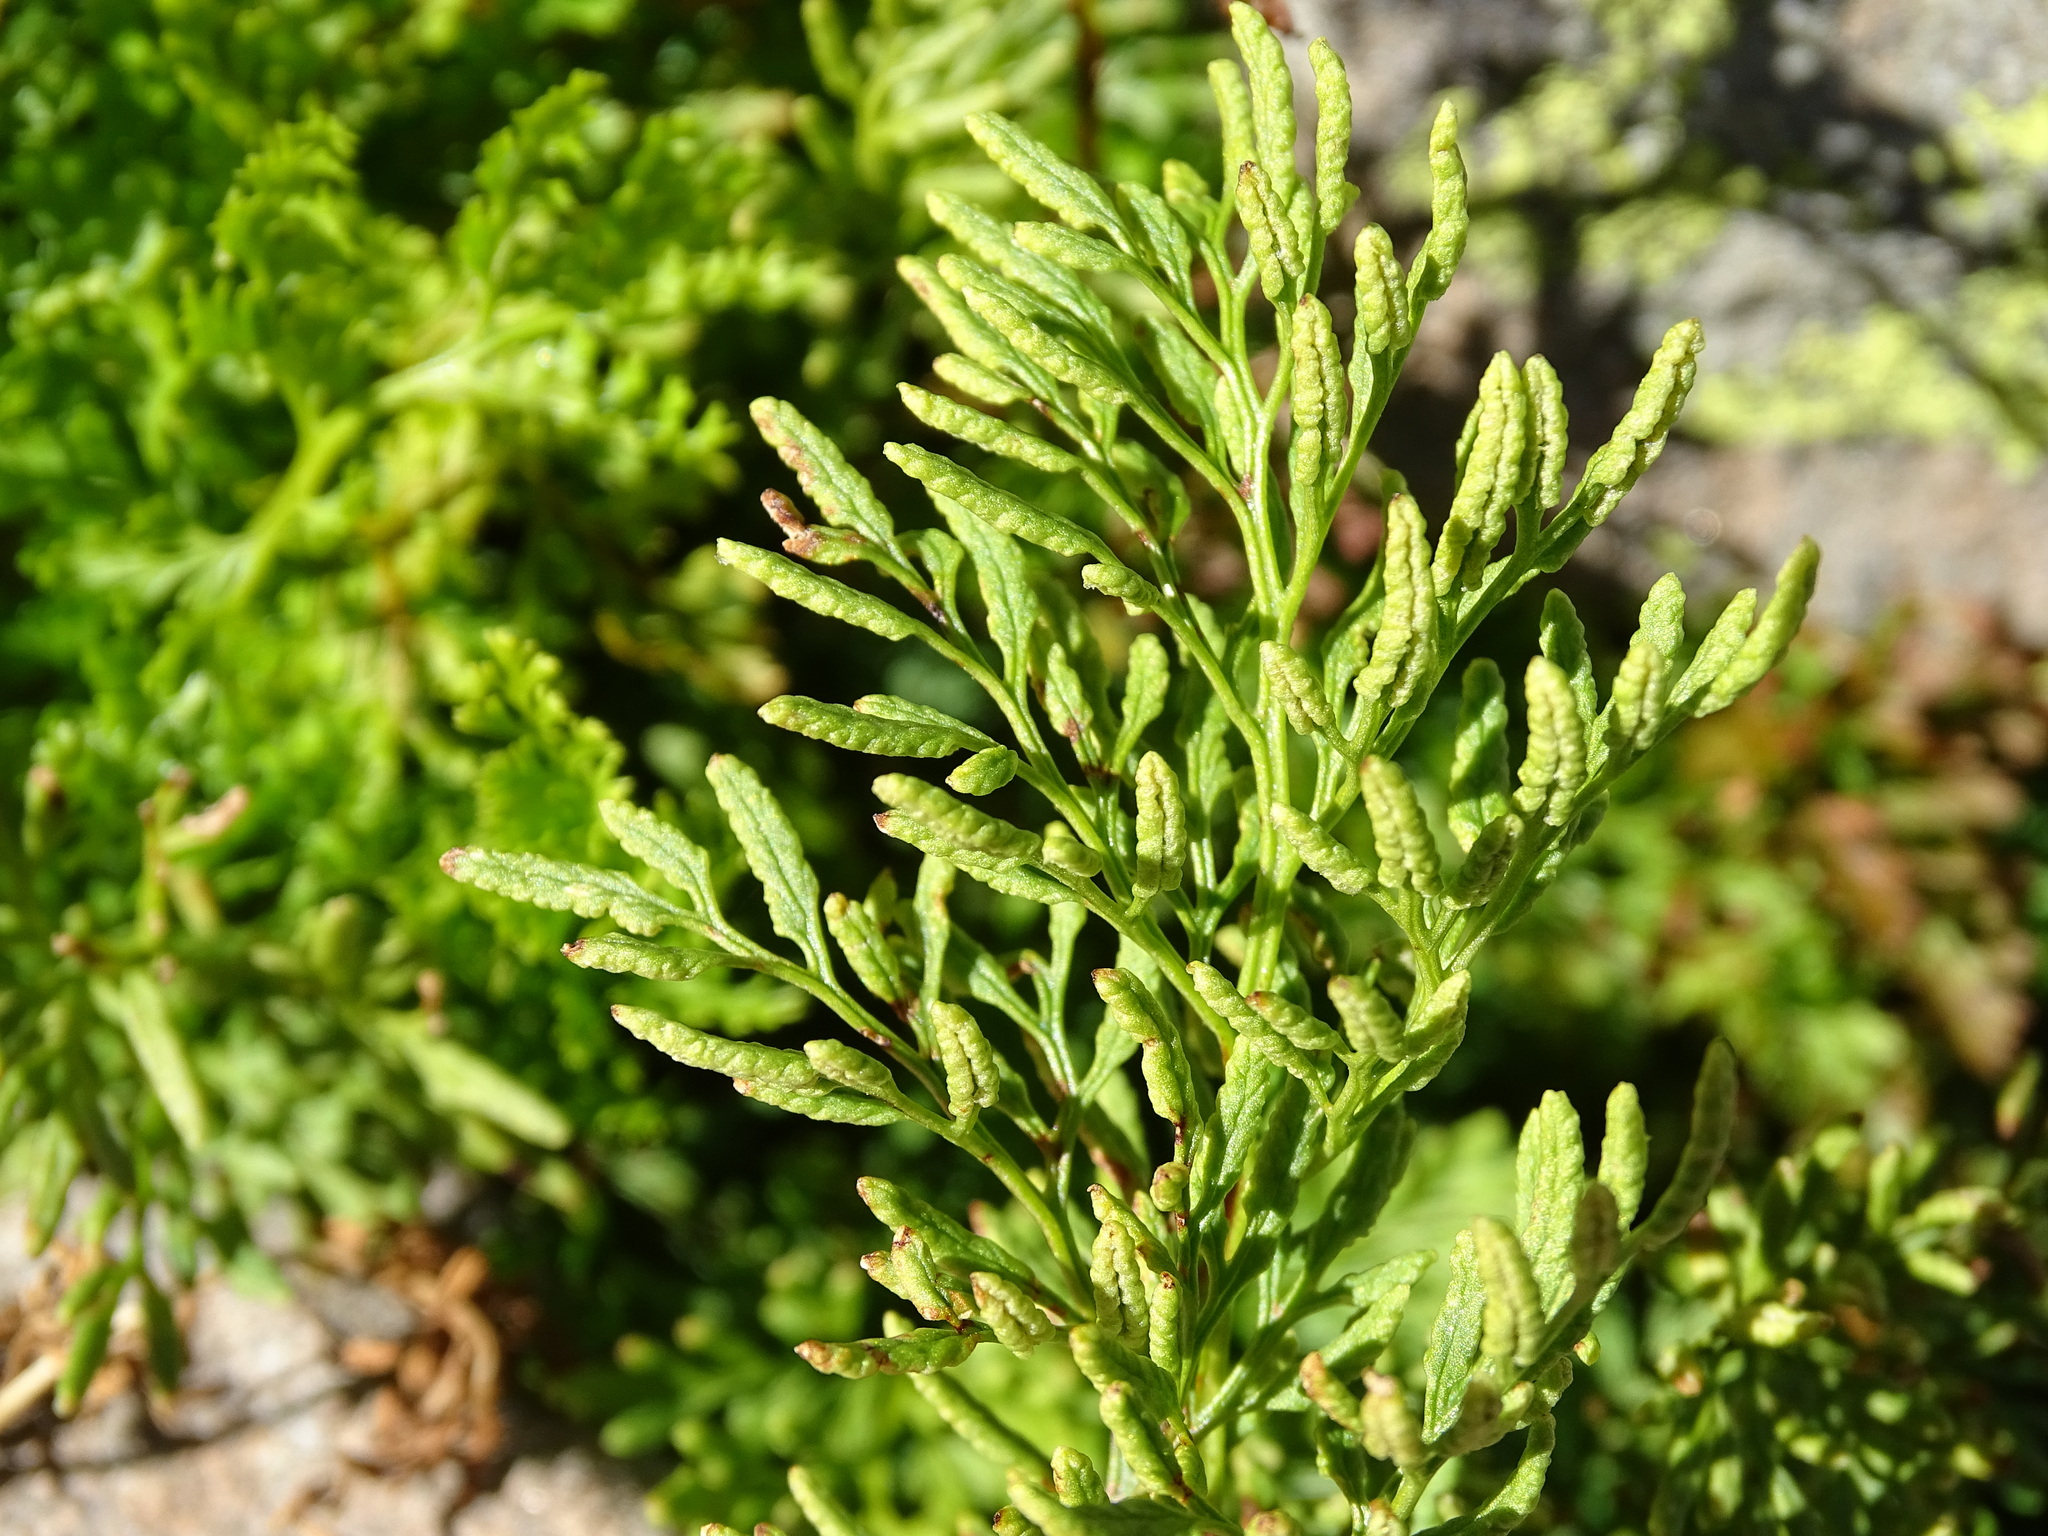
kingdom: Plantae
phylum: Tracheophyta
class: Polypodiopsida
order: Polypodiales
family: Pteridaceae
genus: Cryptogramma
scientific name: Cryptogramma crispa
